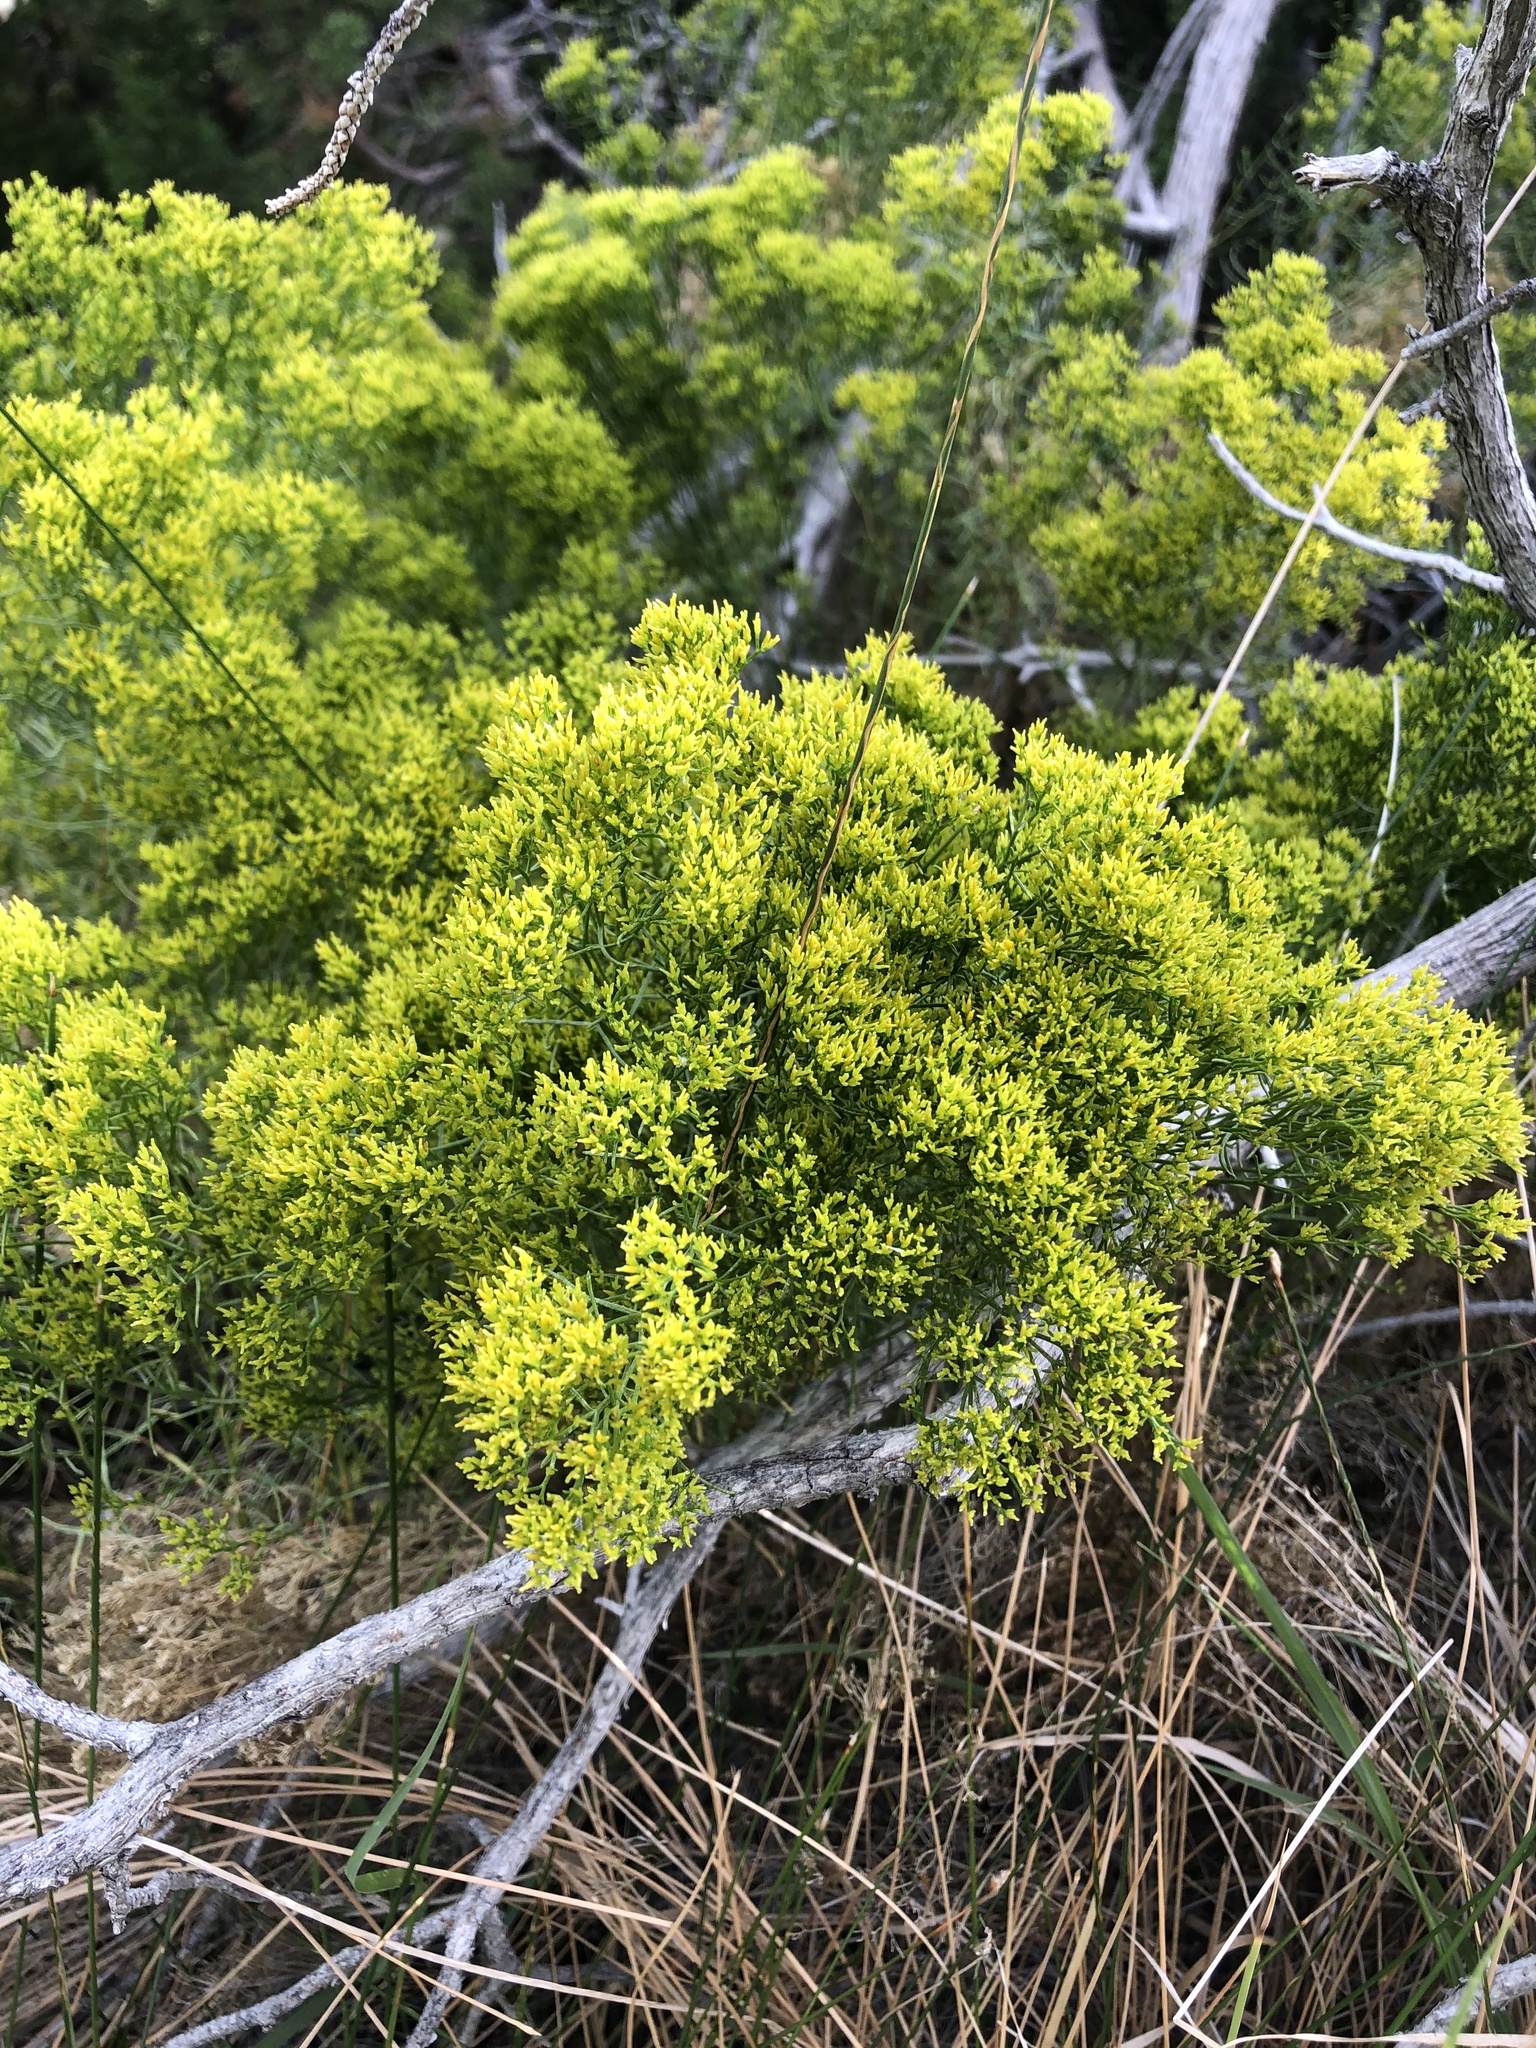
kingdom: Plantae
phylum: Tracheophyta
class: Magnoliopsida
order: Asterales
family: Asteraceae
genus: Gutierrezia
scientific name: Gutierrezia sarothrae
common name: Broom snakeweed
